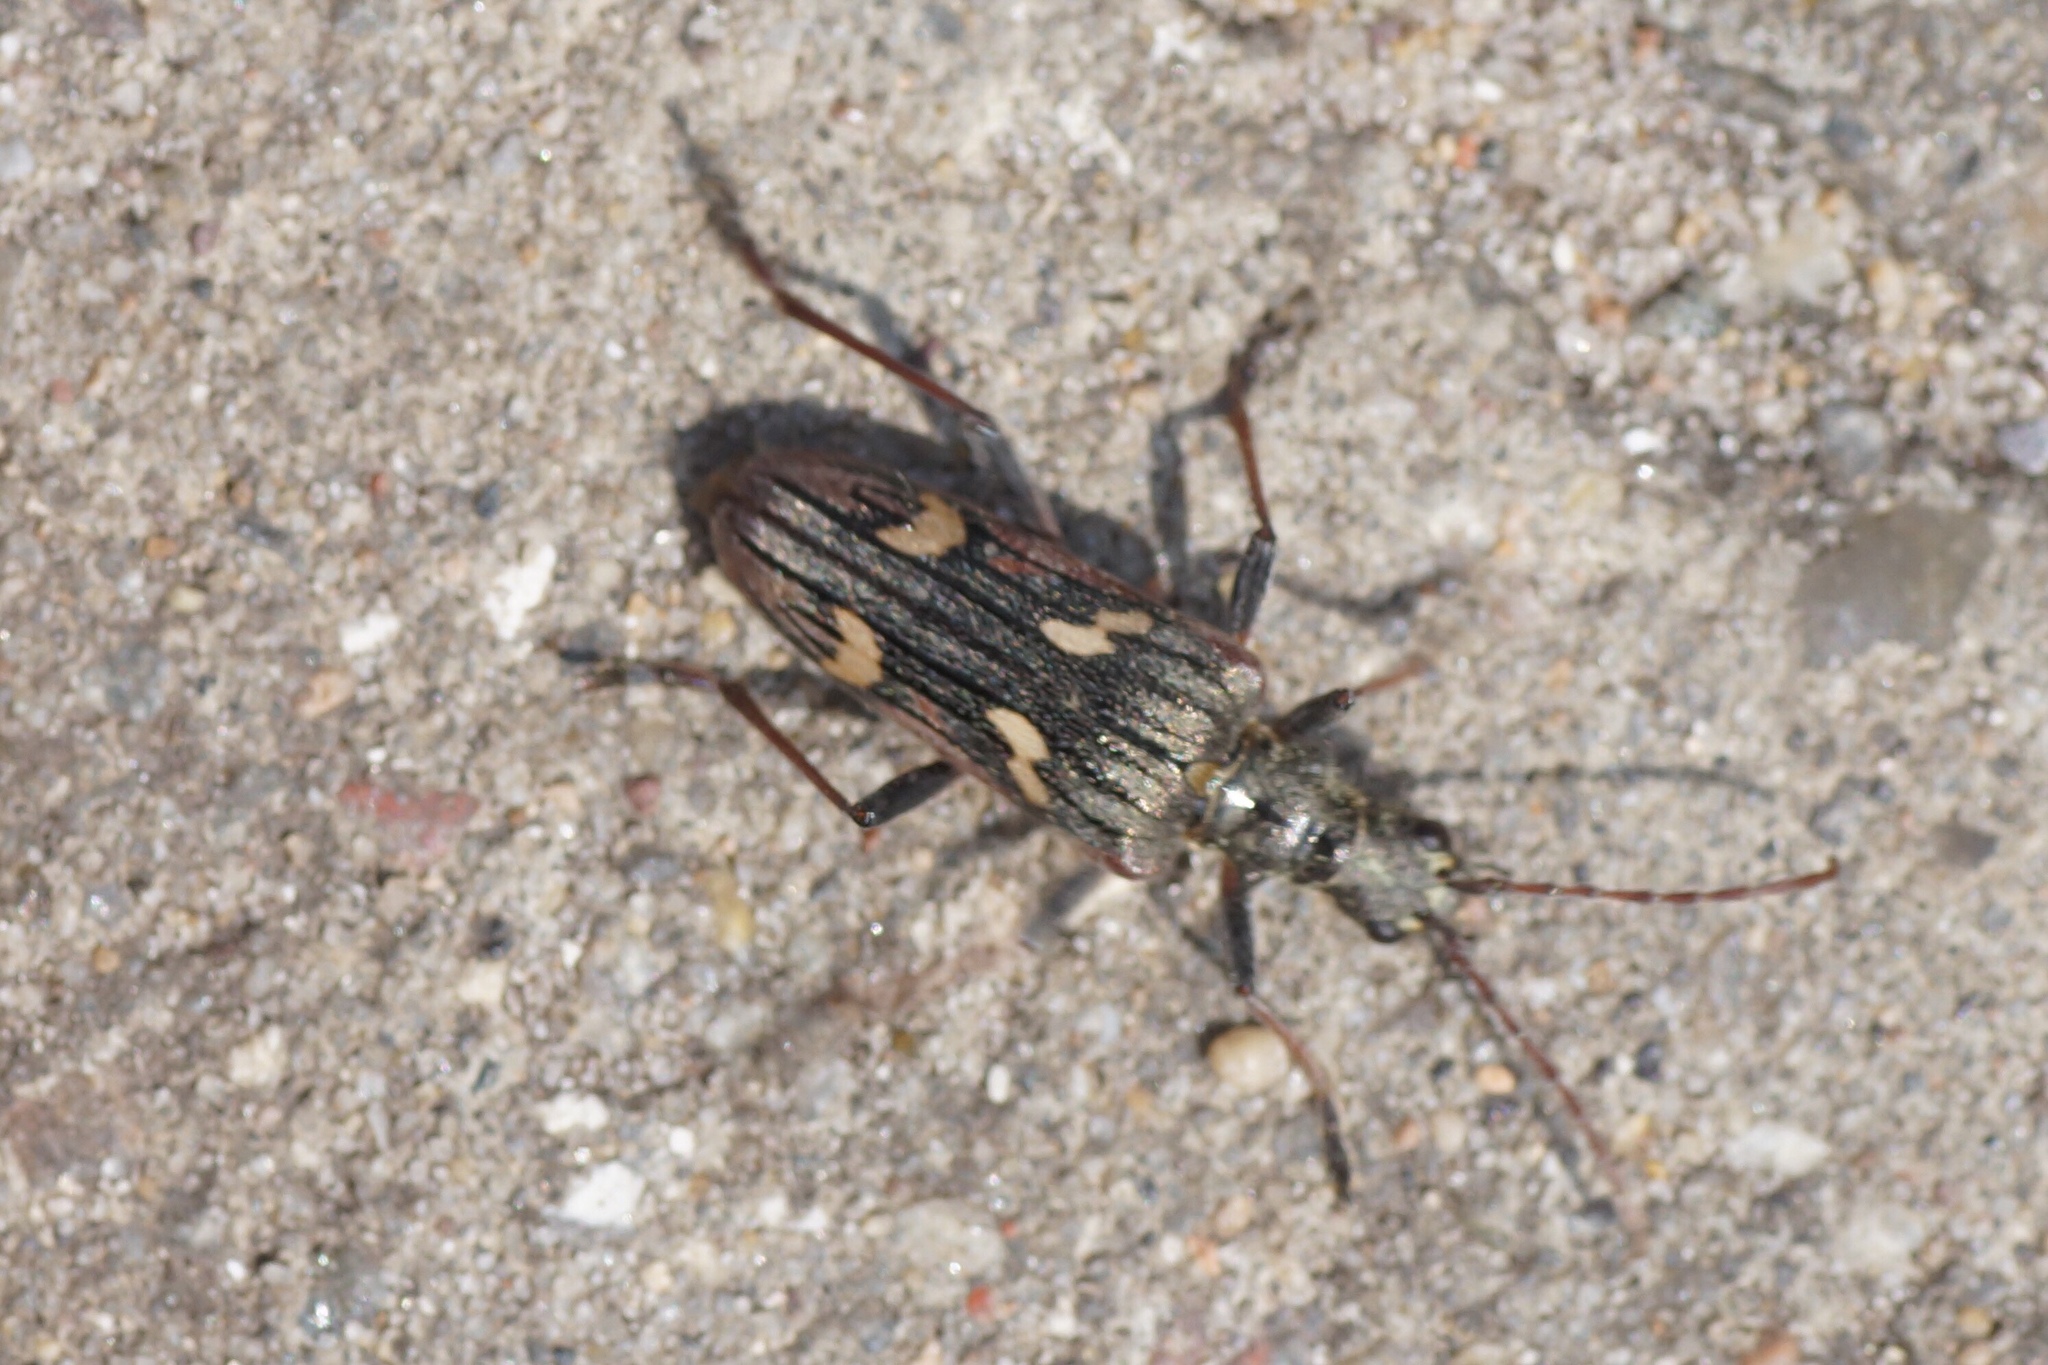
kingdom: Animalia
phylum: Arthropoda
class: Insecta
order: Coleoptera
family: Cerambycidae
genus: Rhagium
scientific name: Rhagium bifasciatum
